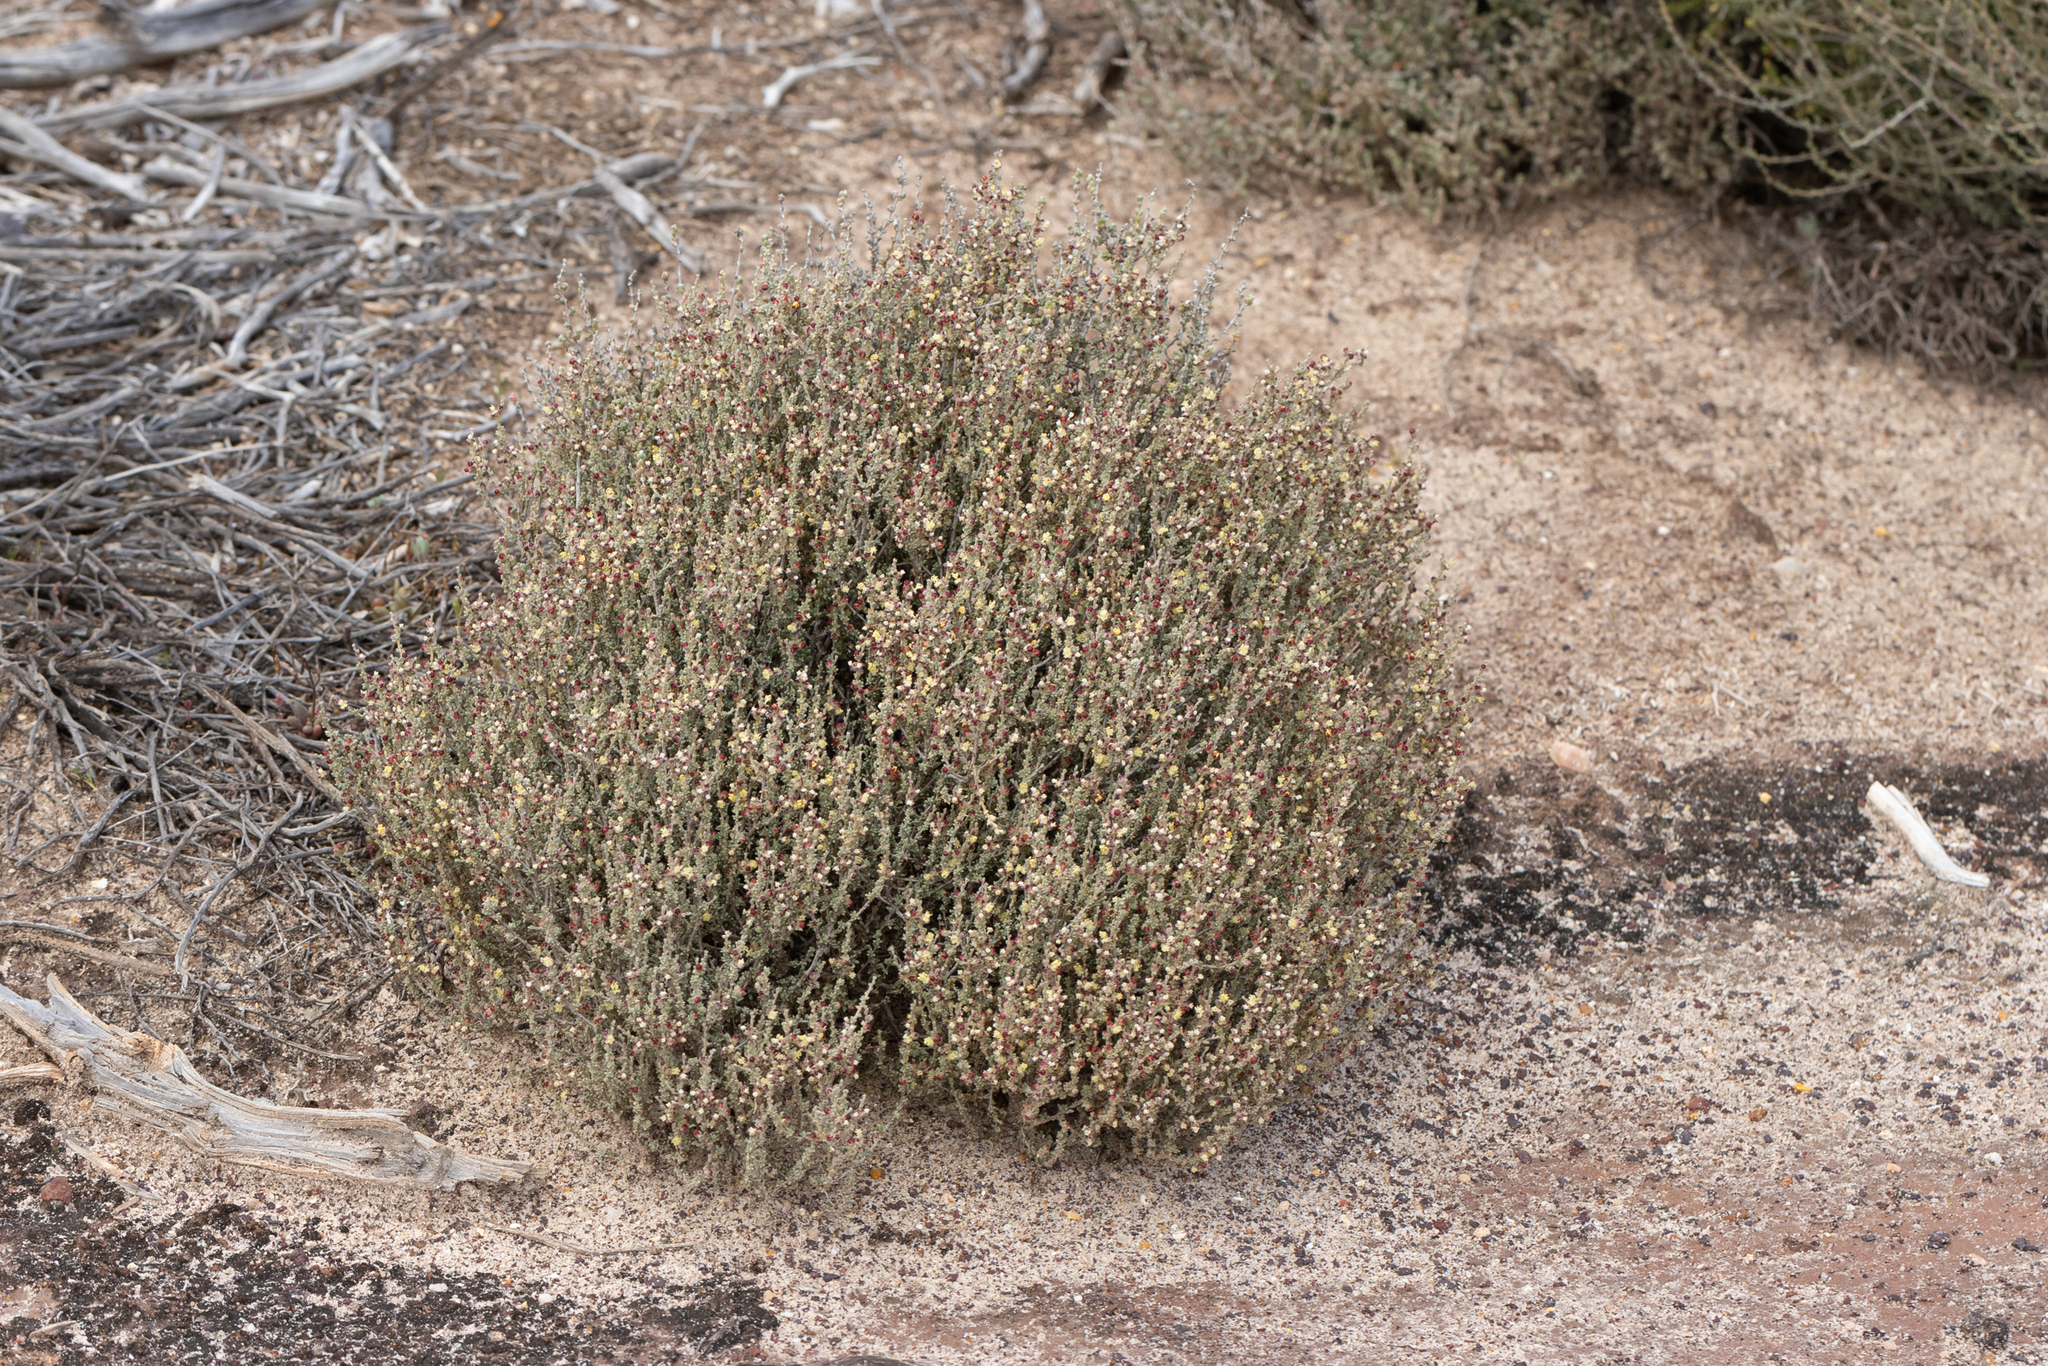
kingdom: Plantae
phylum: Tracheophyta
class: Magnoliopsida
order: Malvales
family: Malvaceae
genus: Lawrencia
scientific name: Lawrencia squamata
